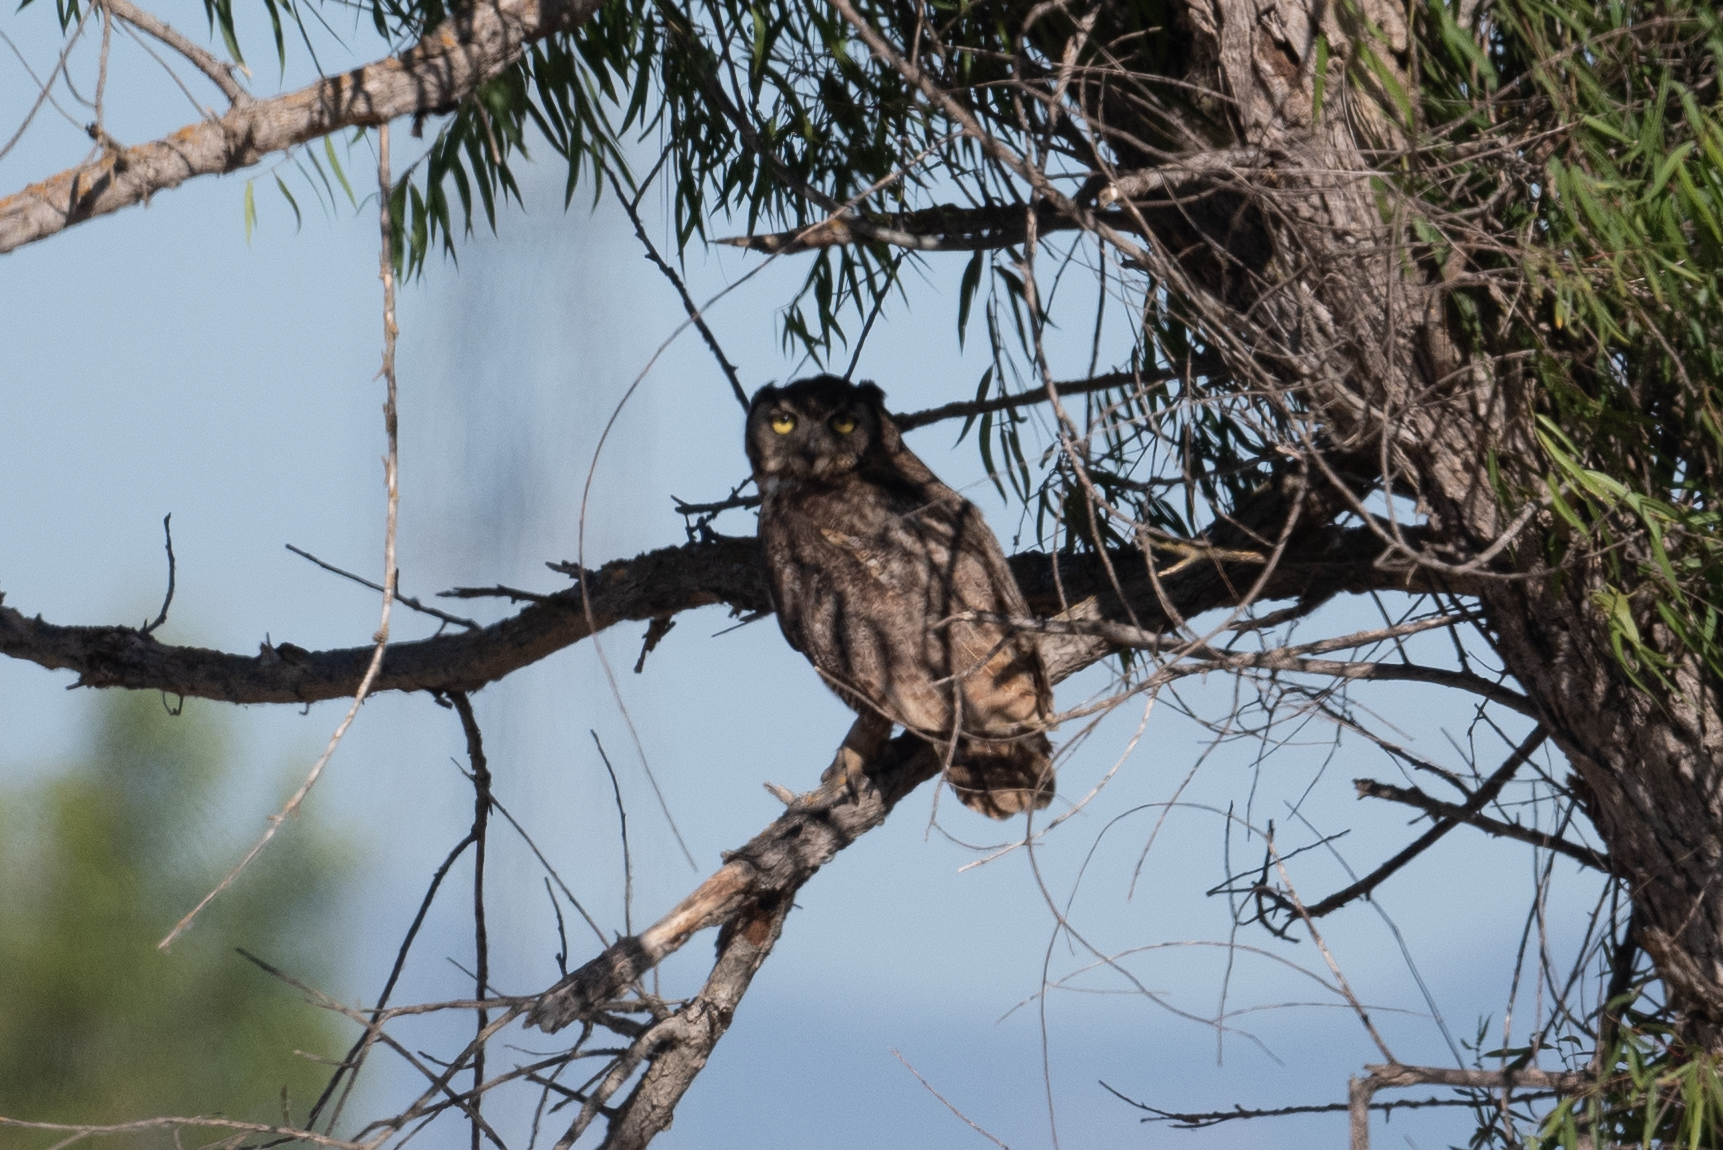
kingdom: Animalia
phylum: Chordata
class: Aves
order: Strigiformes
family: Strigidae
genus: Bubo
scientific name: Bubo virginianus
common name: Great horned owl
